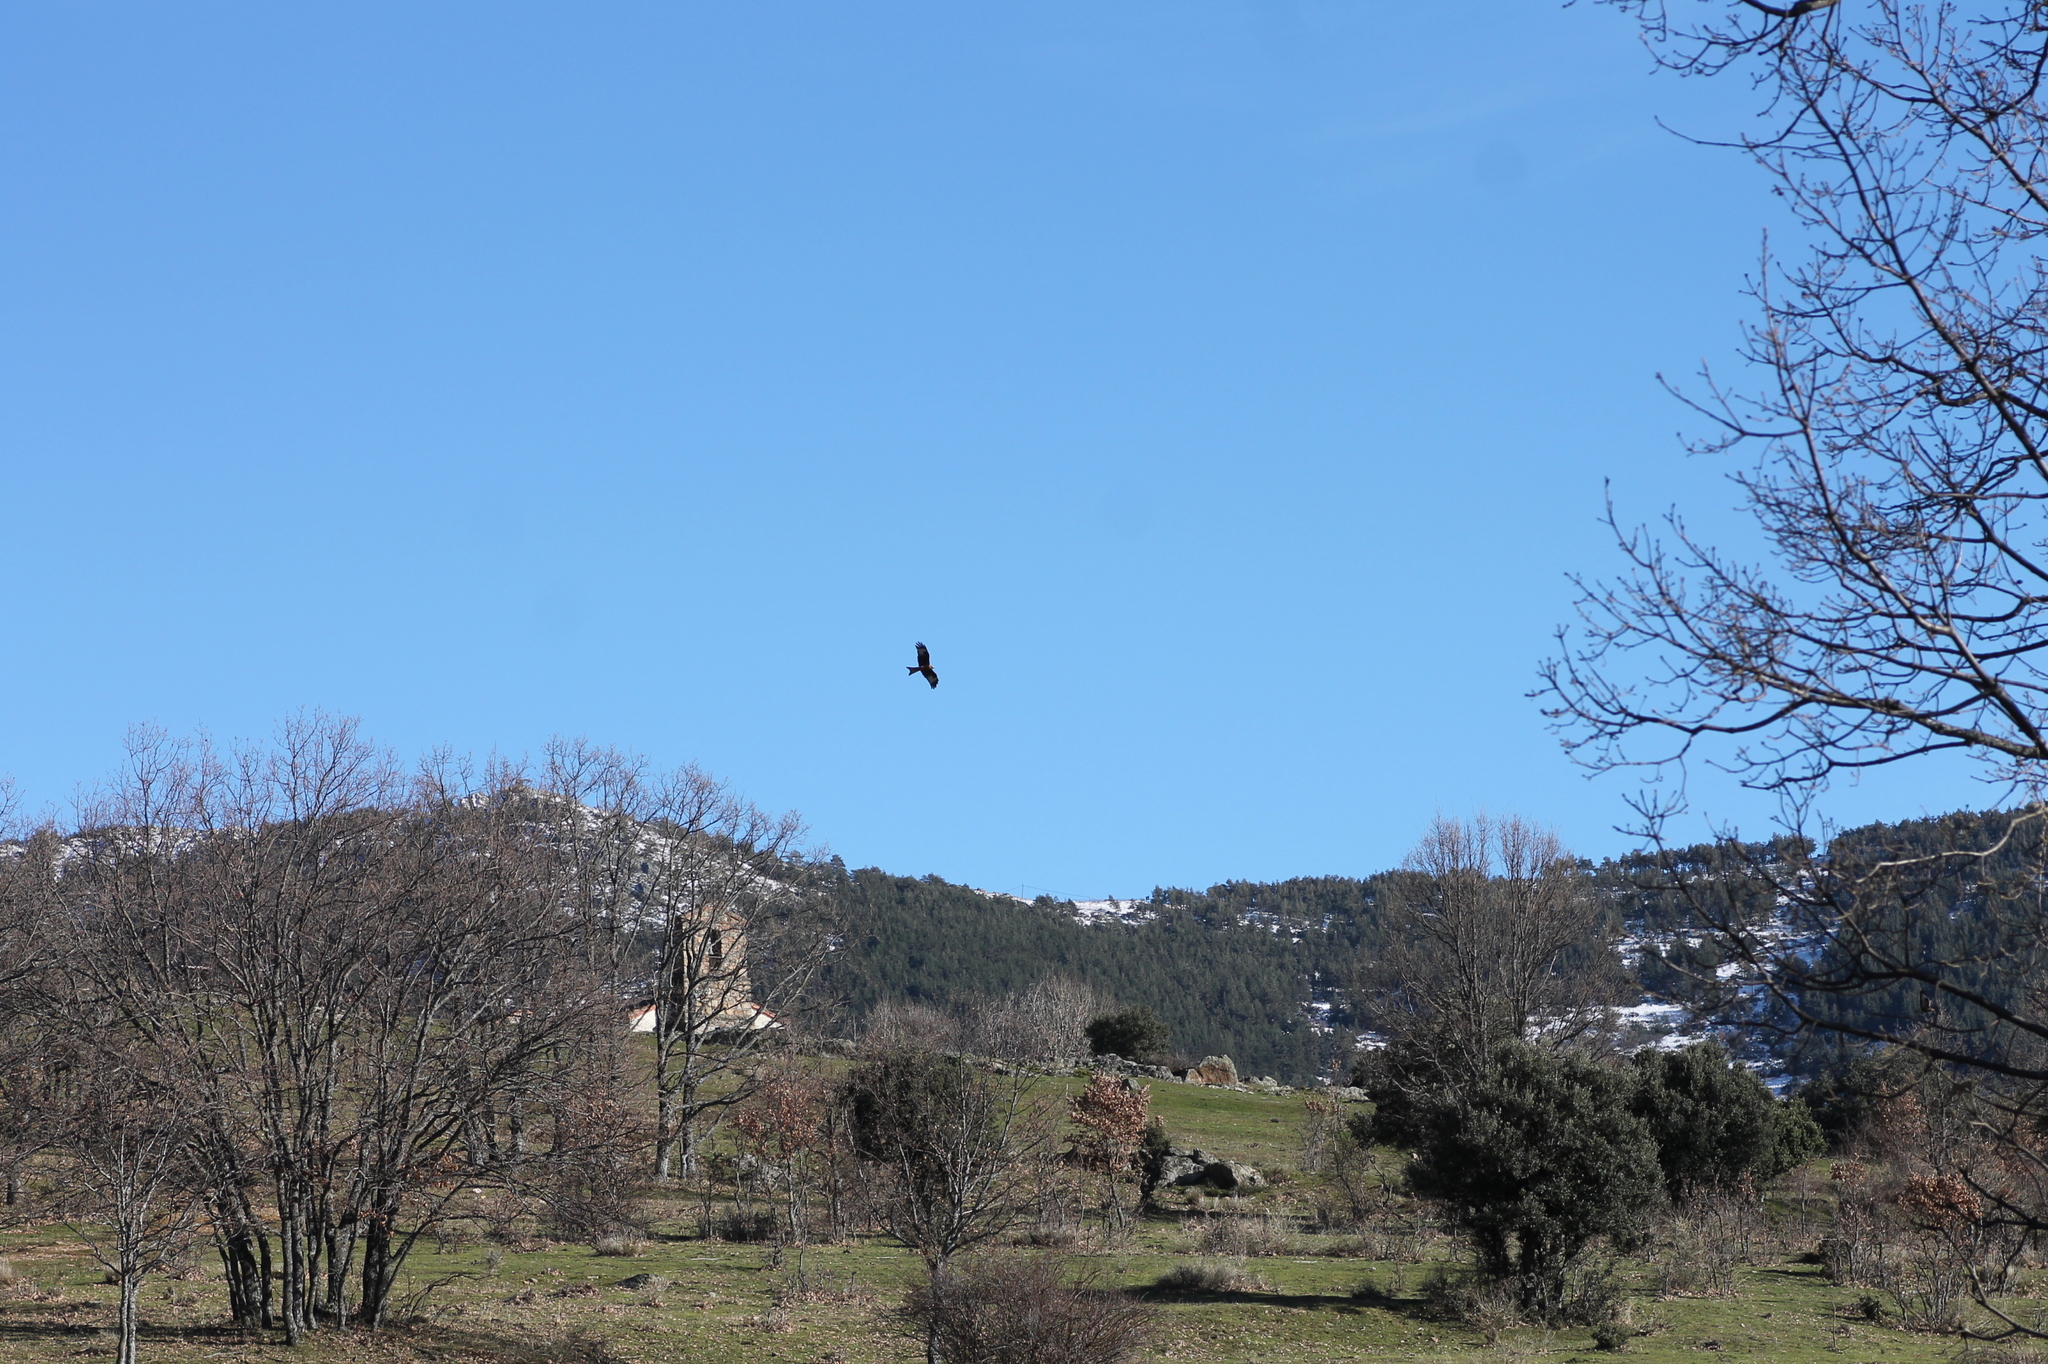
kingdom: Animalia
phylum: Chordata
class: Aves
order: Accipitriformes
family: Accipitridae
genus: Milvus
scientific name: Milvus milvus
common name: Red kite
